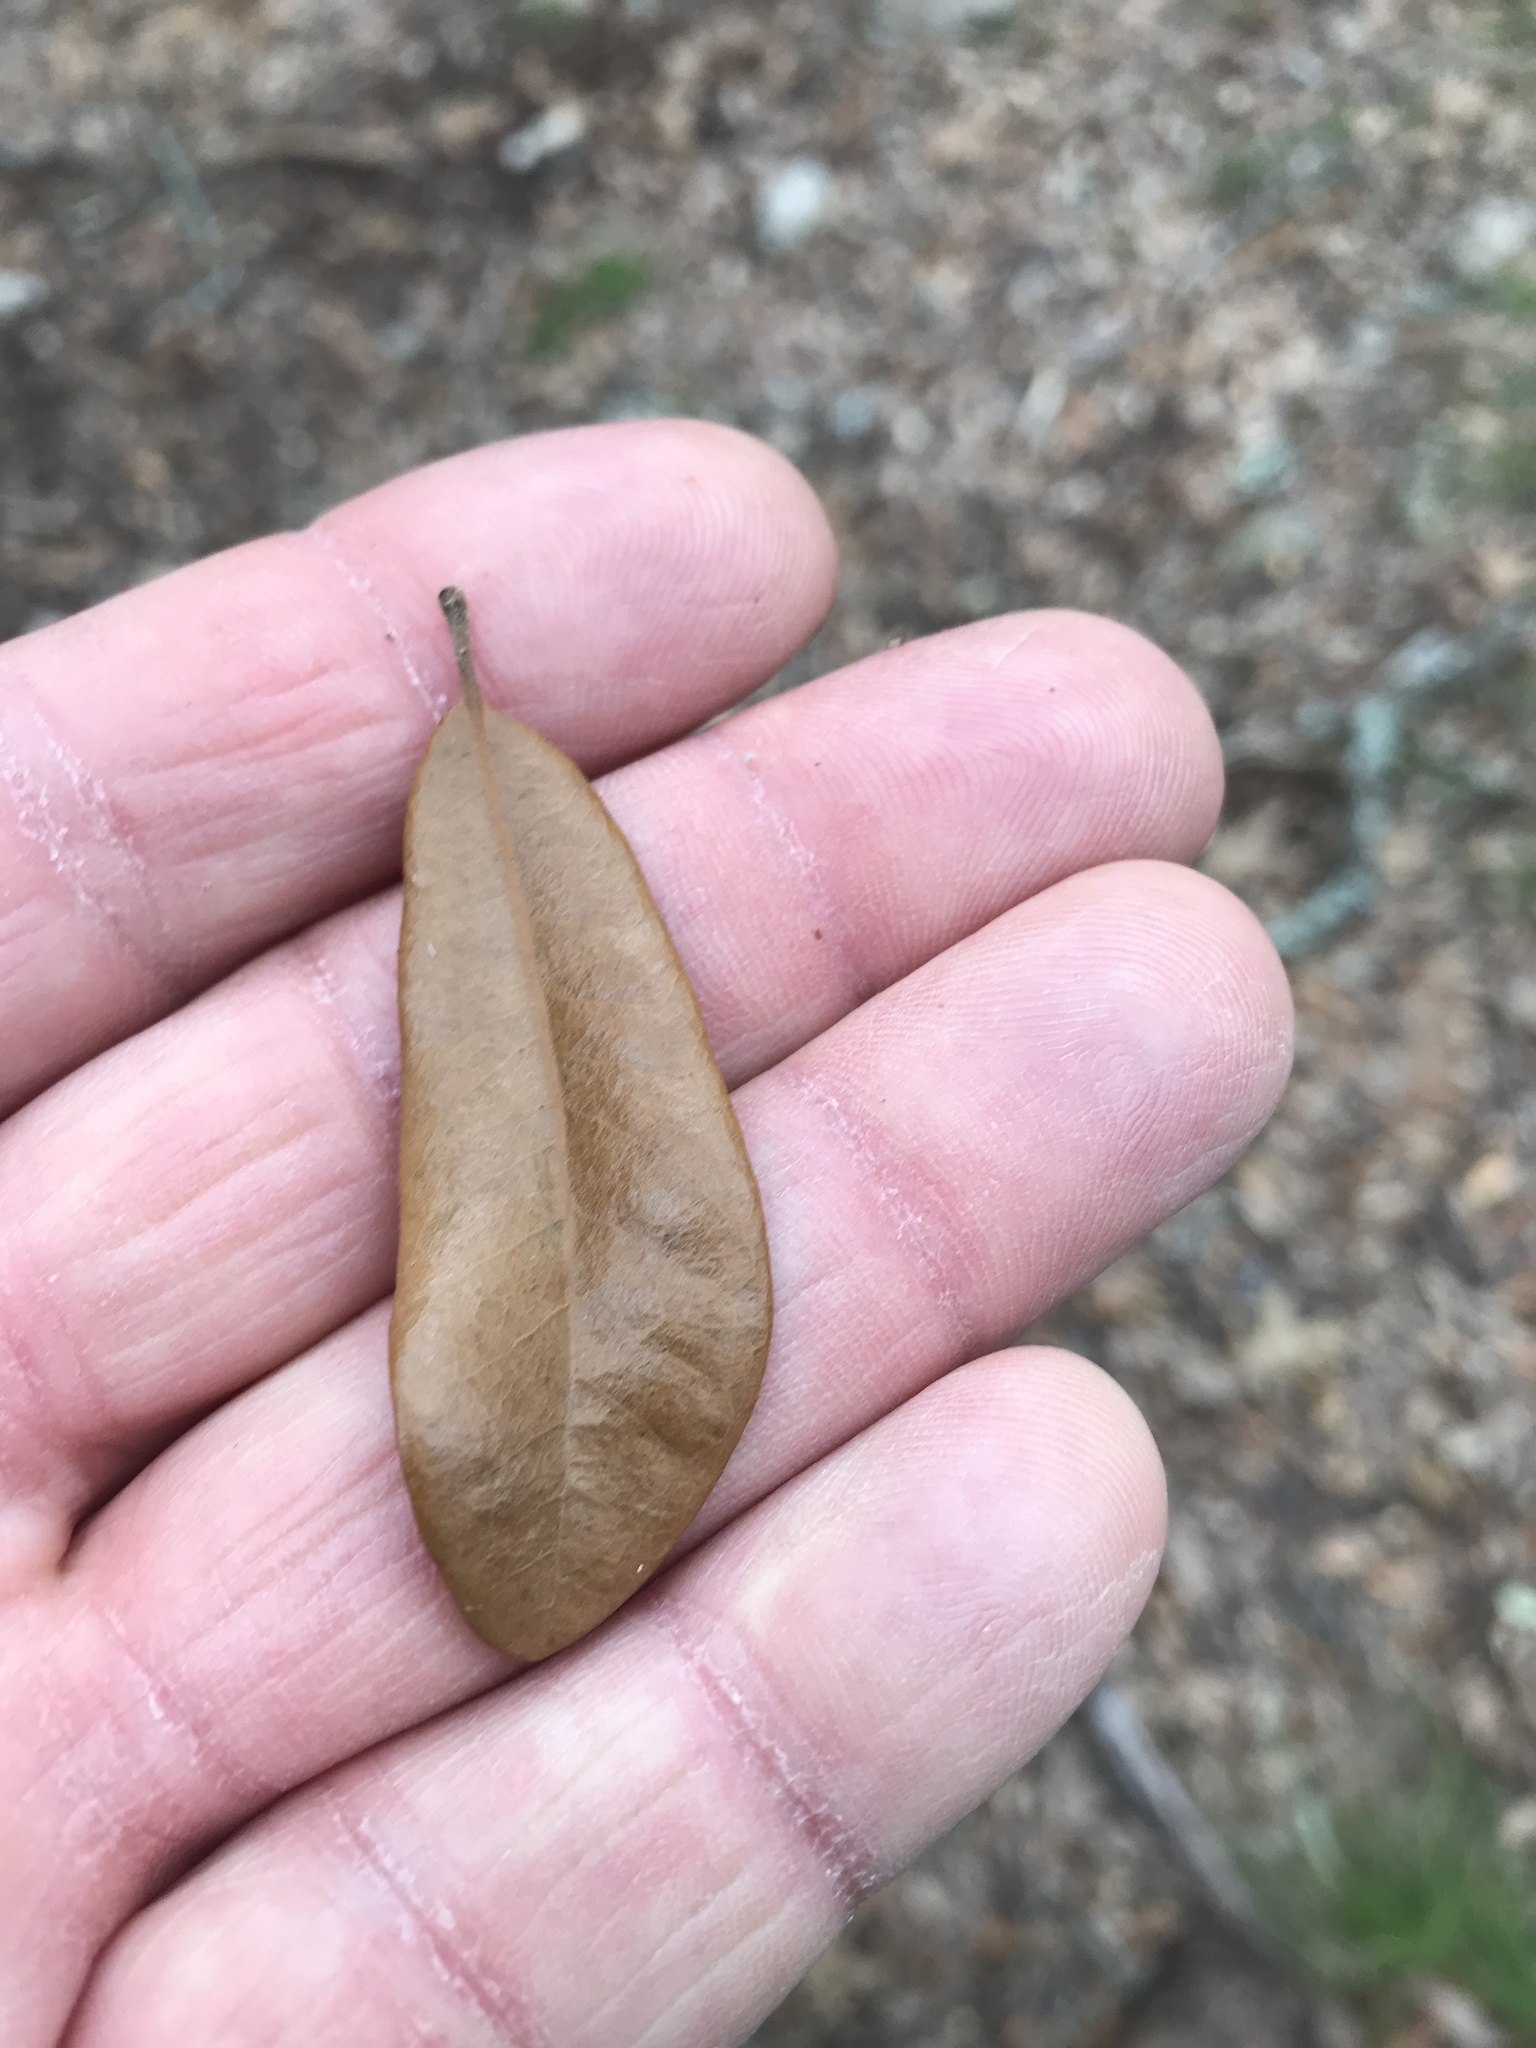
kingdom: Plantae
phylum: Tracheophyta
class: Magnoliopsida
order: Fagales
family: Fagaceae
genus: Quercus
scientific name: Quercus fusiformis
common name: Texas live oak
